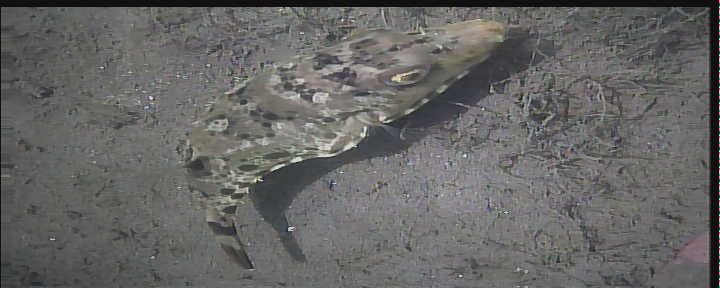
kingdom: Animalia
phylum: Chordata
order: Tetraodontiformes
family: Tetraodontidae
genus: Sphoeroides
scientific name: Sphoeroides spengleri
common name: Bandtail puffer
